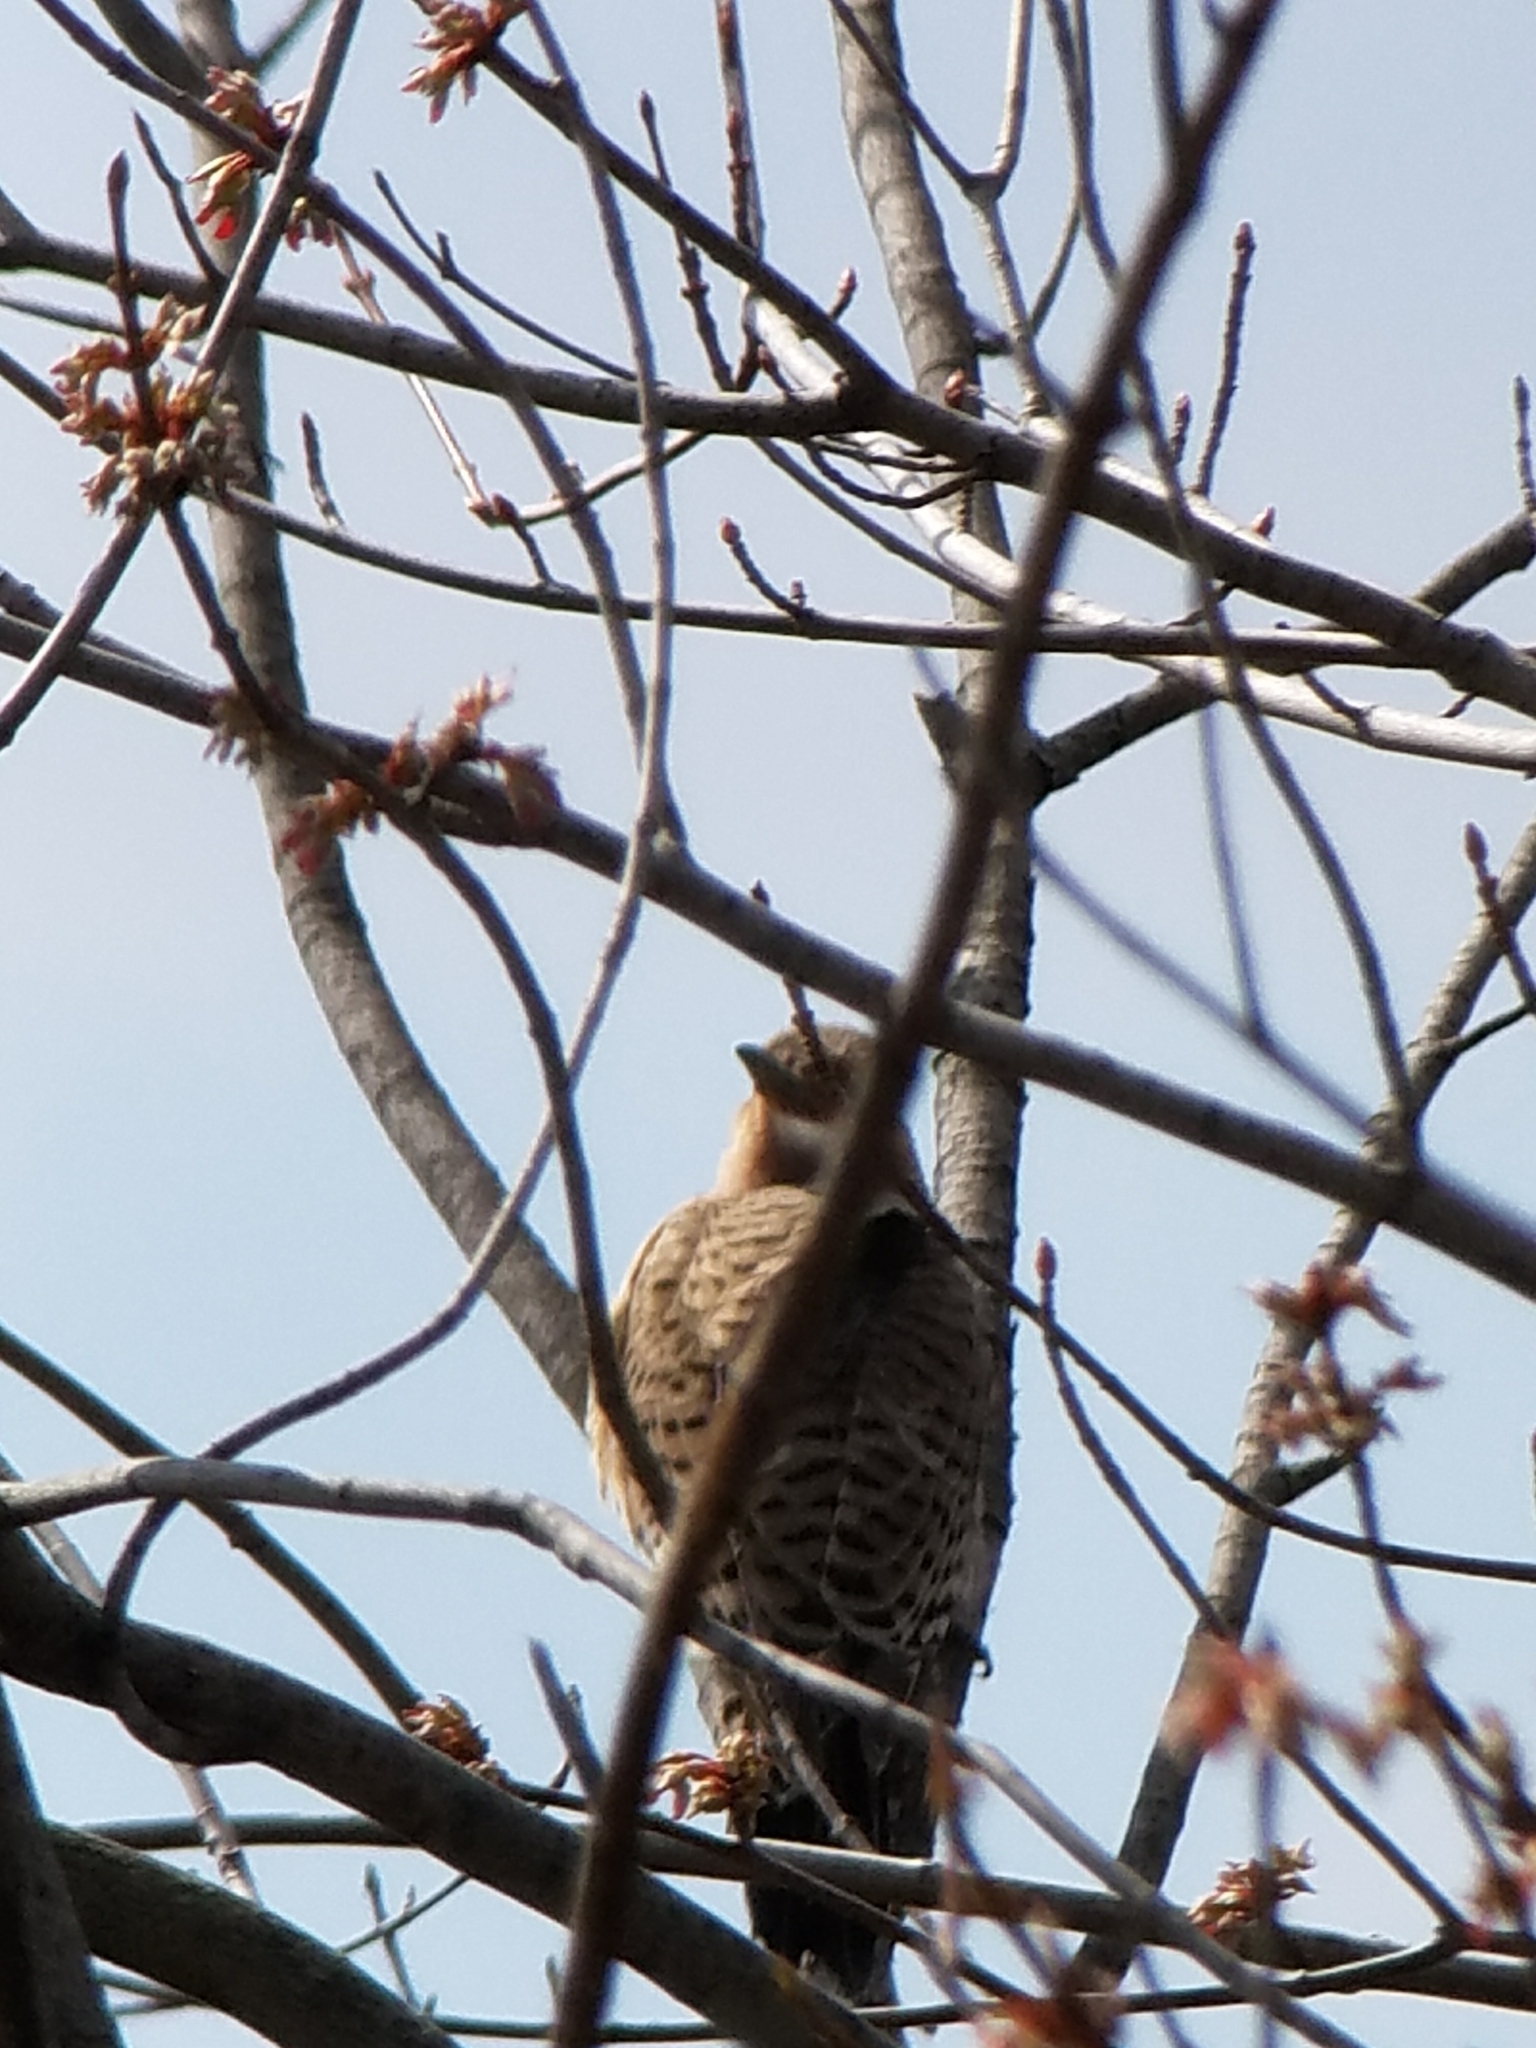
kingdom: Animalia
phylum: Chordata
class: Aves
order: Piciformes
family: Picidae
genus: Colaptes
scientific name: Colaptes auratus
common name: Northern flicker
